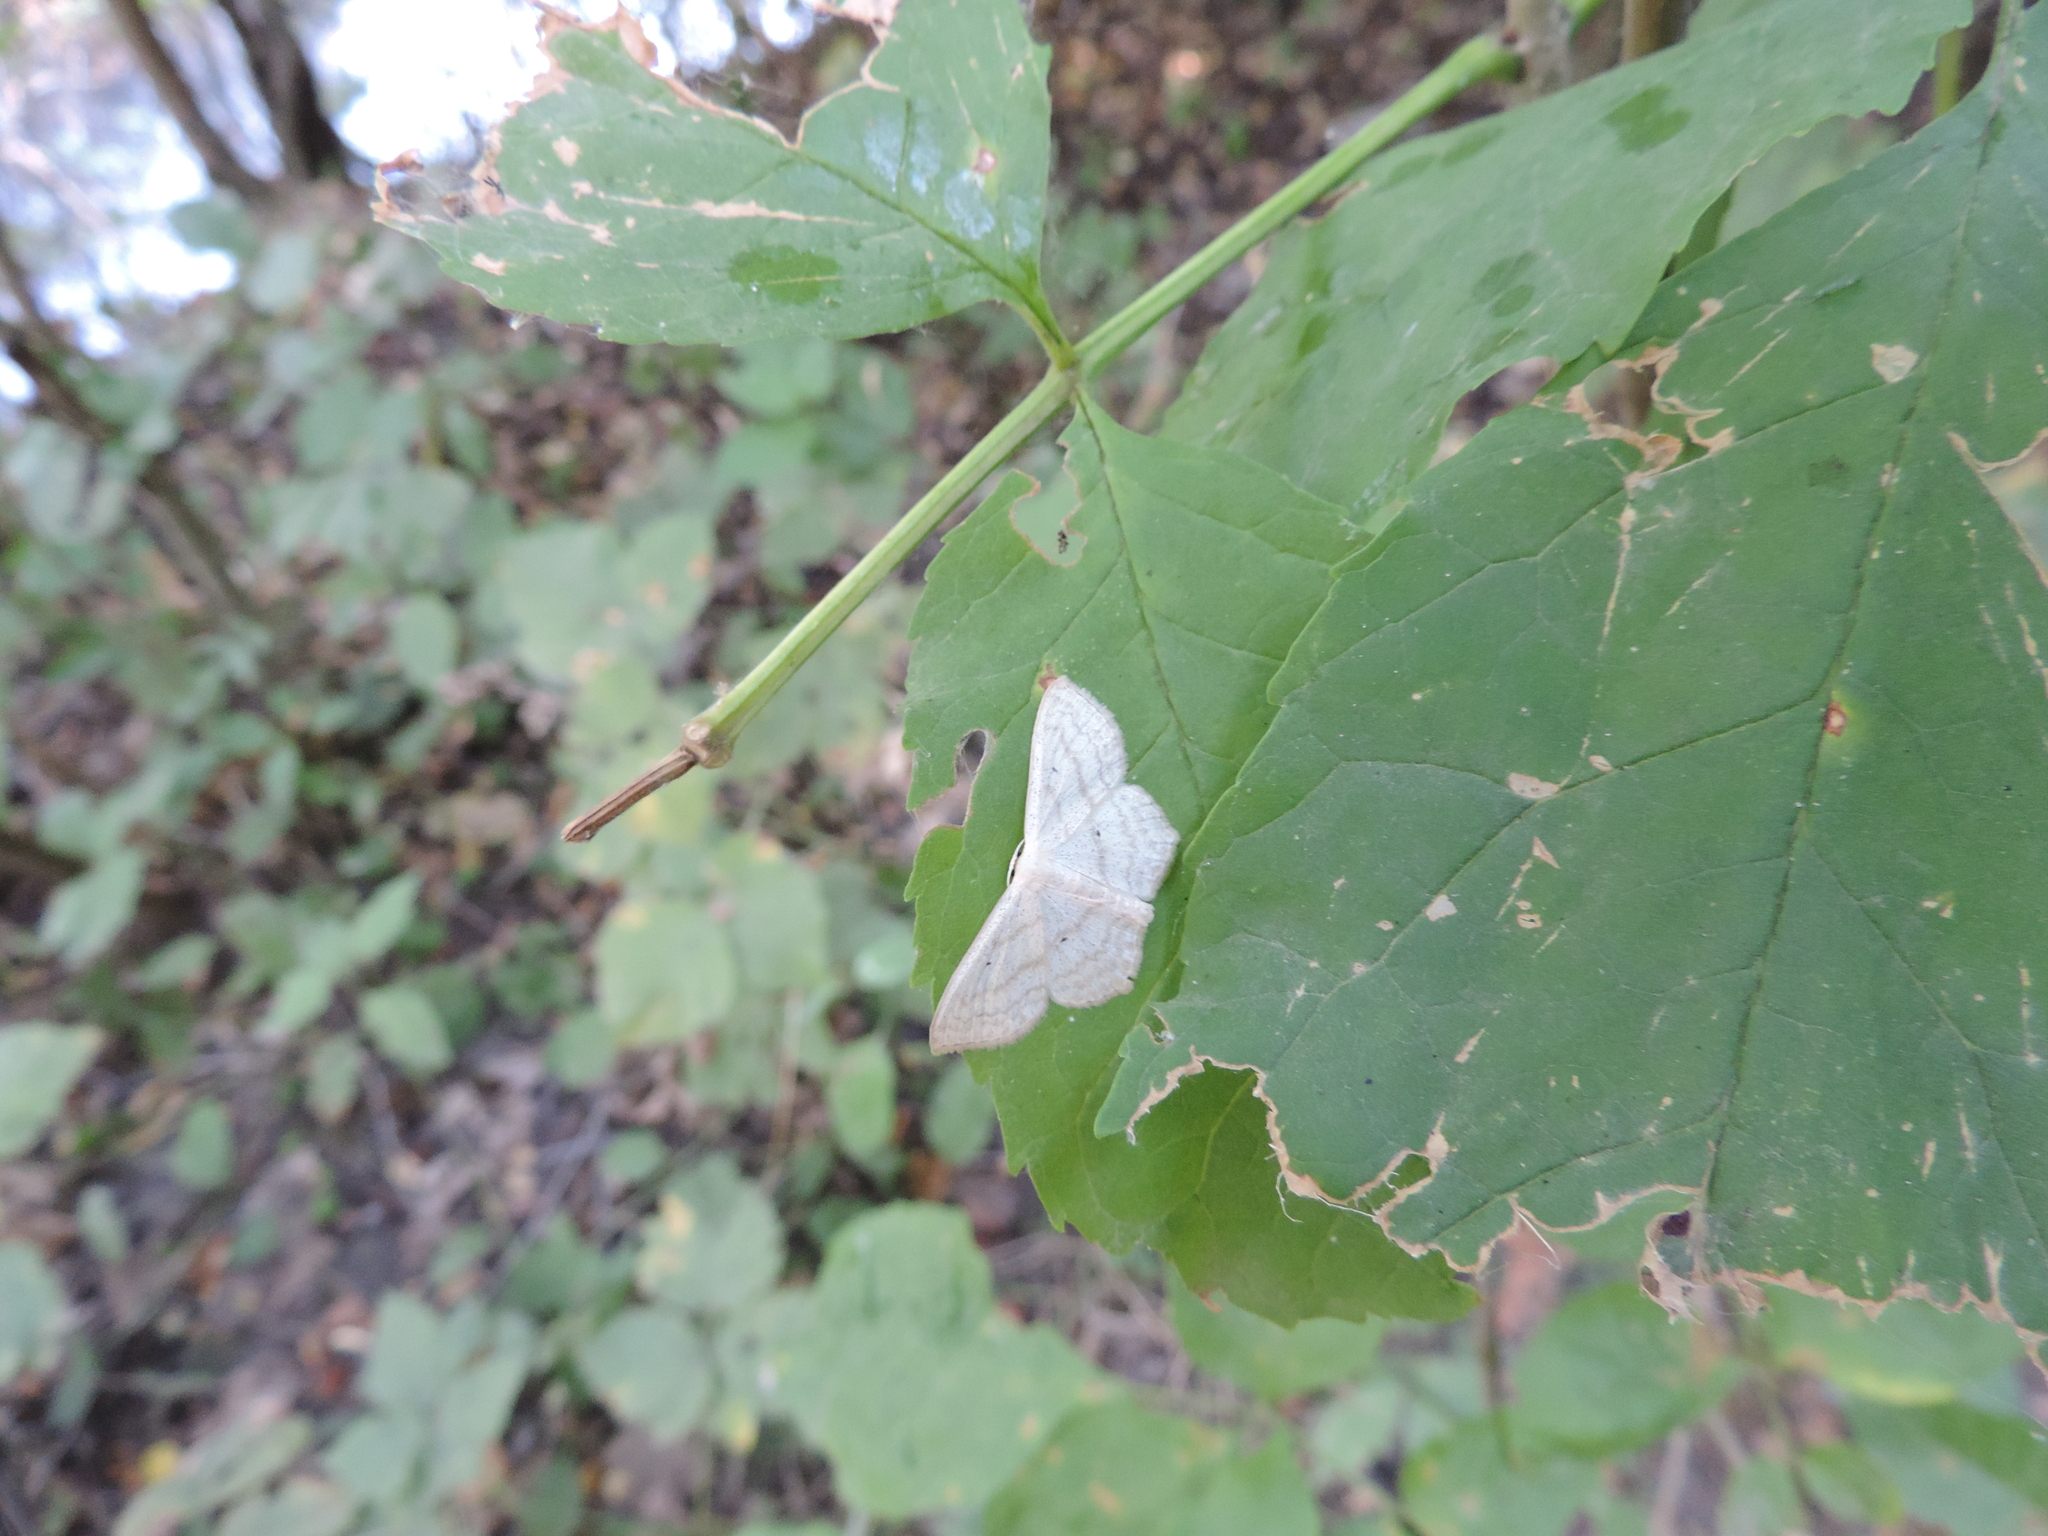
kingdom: Animalia
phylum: Arthropoda
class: Insecta
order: Lepidoptera
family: Geometridae
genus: Scopula
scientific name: Scopula nigropunctata
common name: Sub-angled wave
